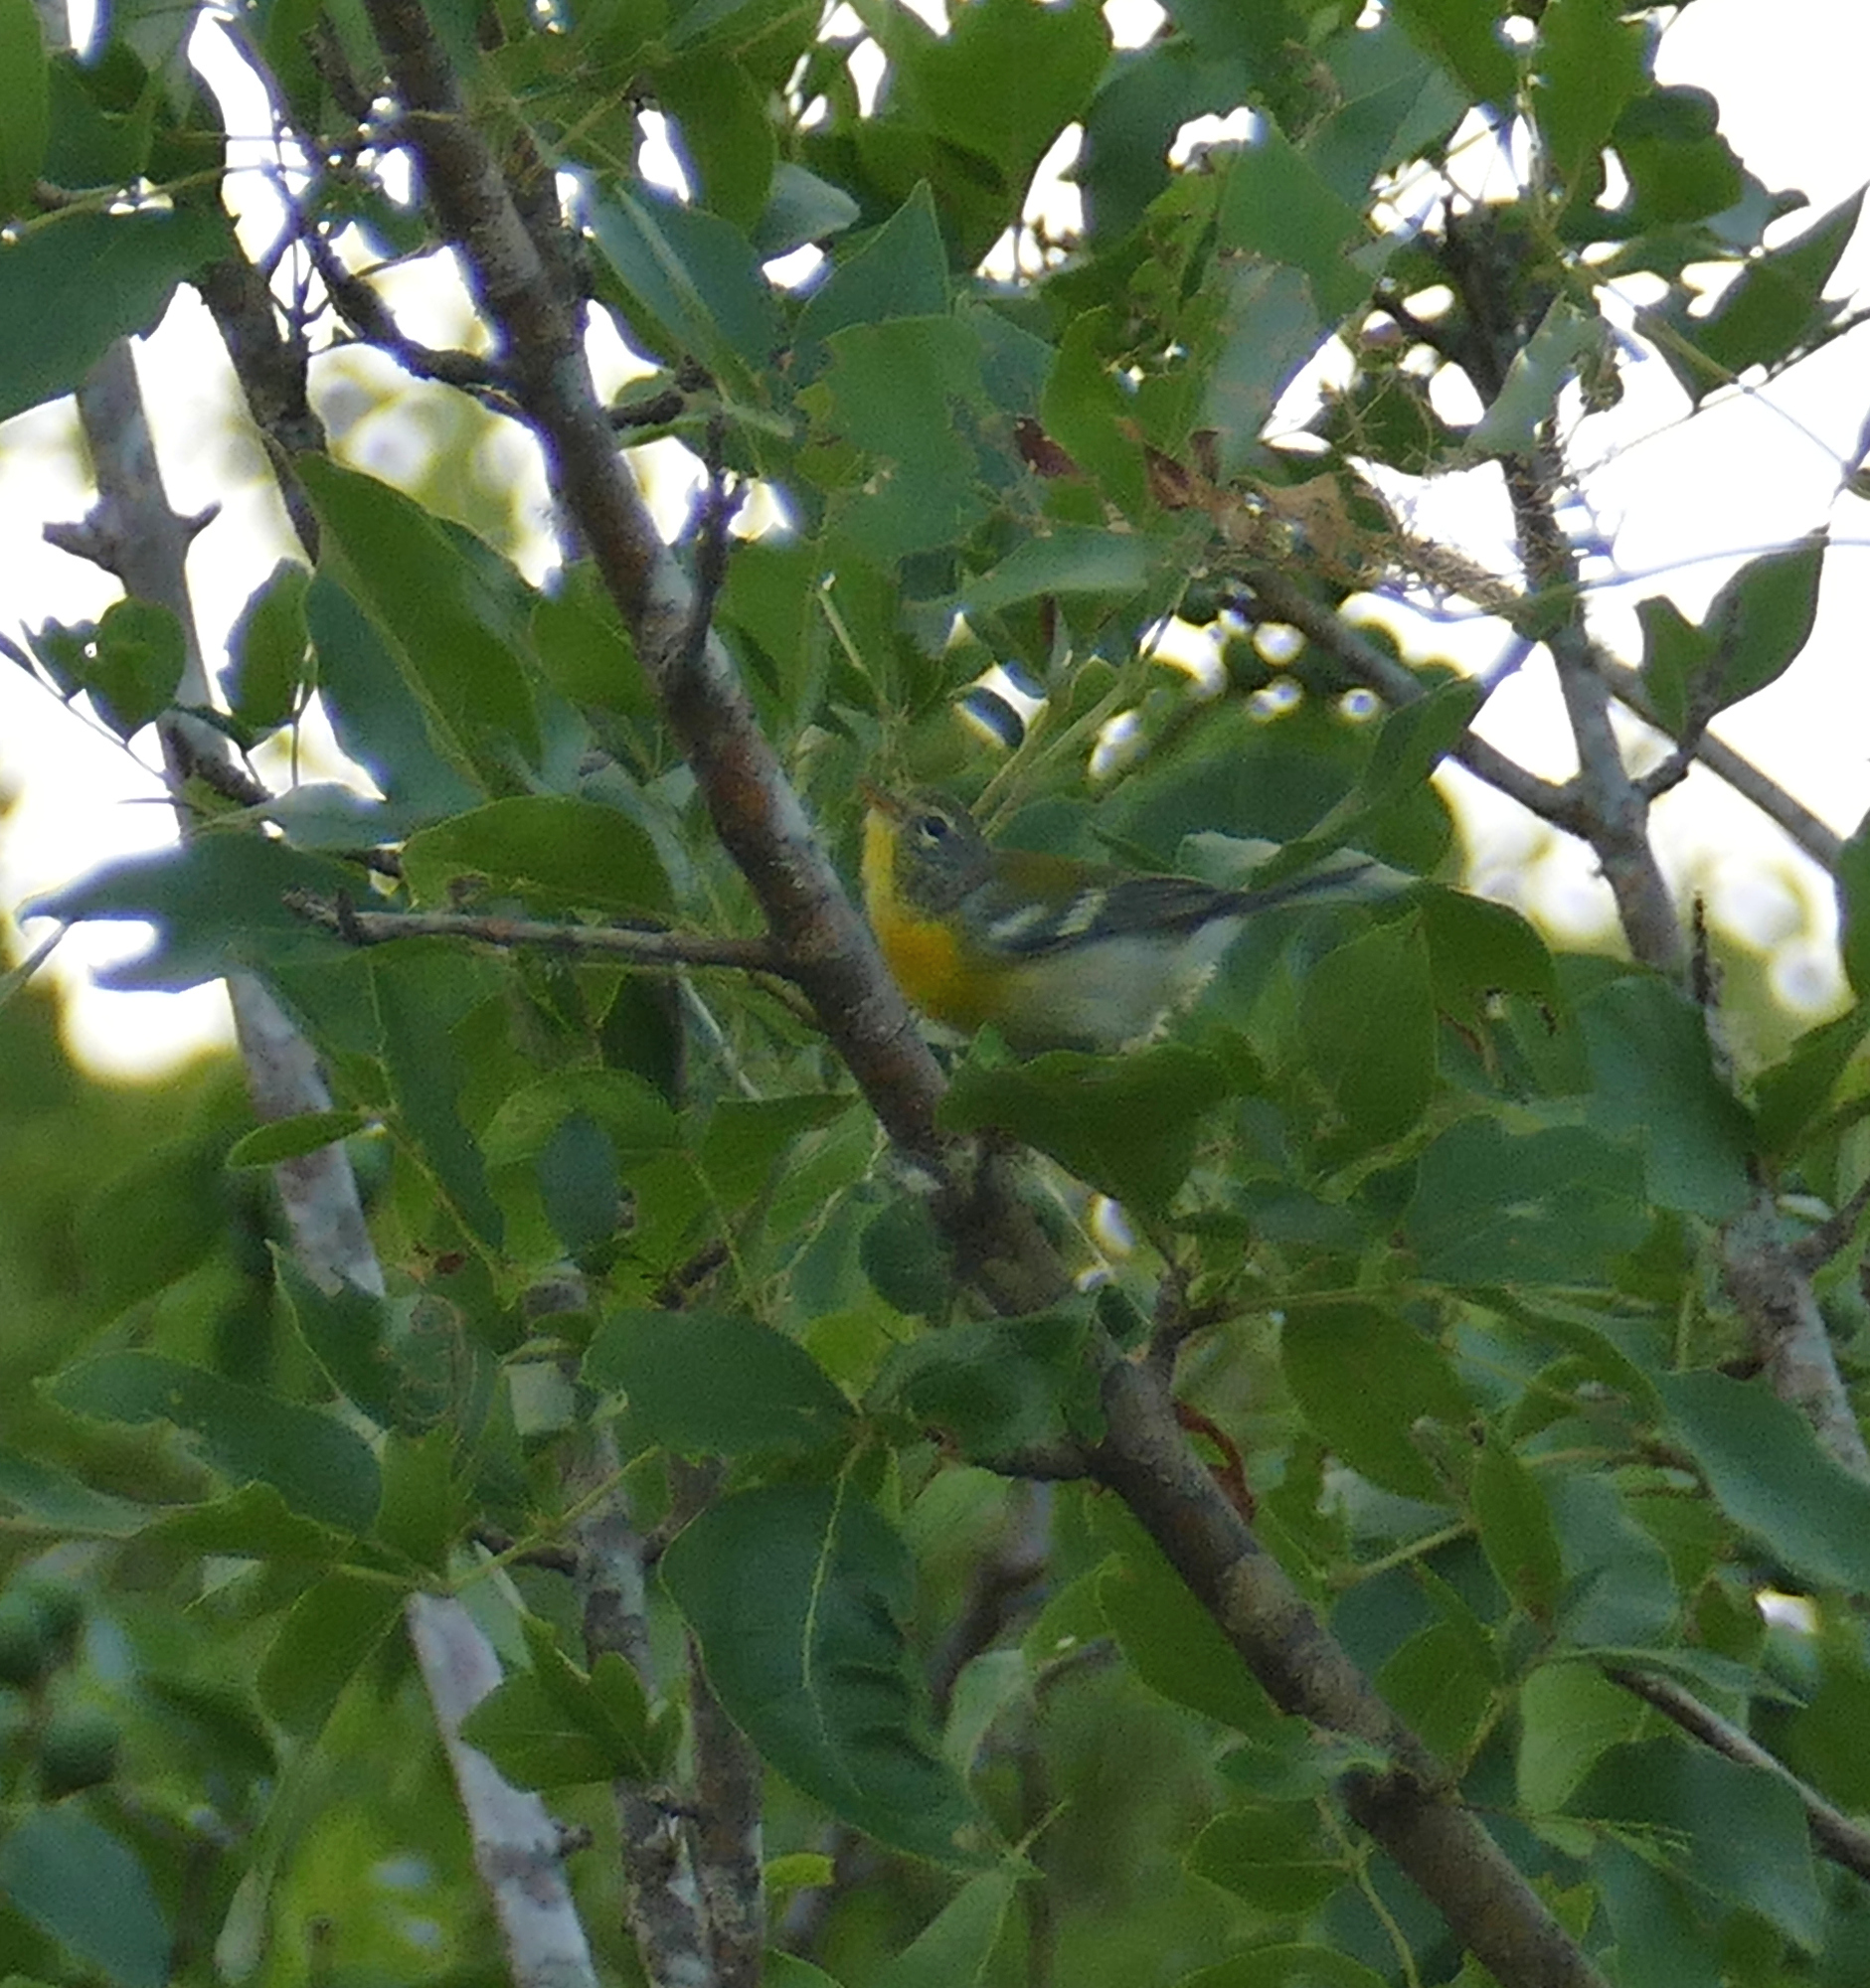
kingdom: Animalia
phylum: Chordata
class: Aves
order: Passeriformes
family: Parulidae
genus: Setophaga
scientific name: Setophaga americana
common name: Northern parula
